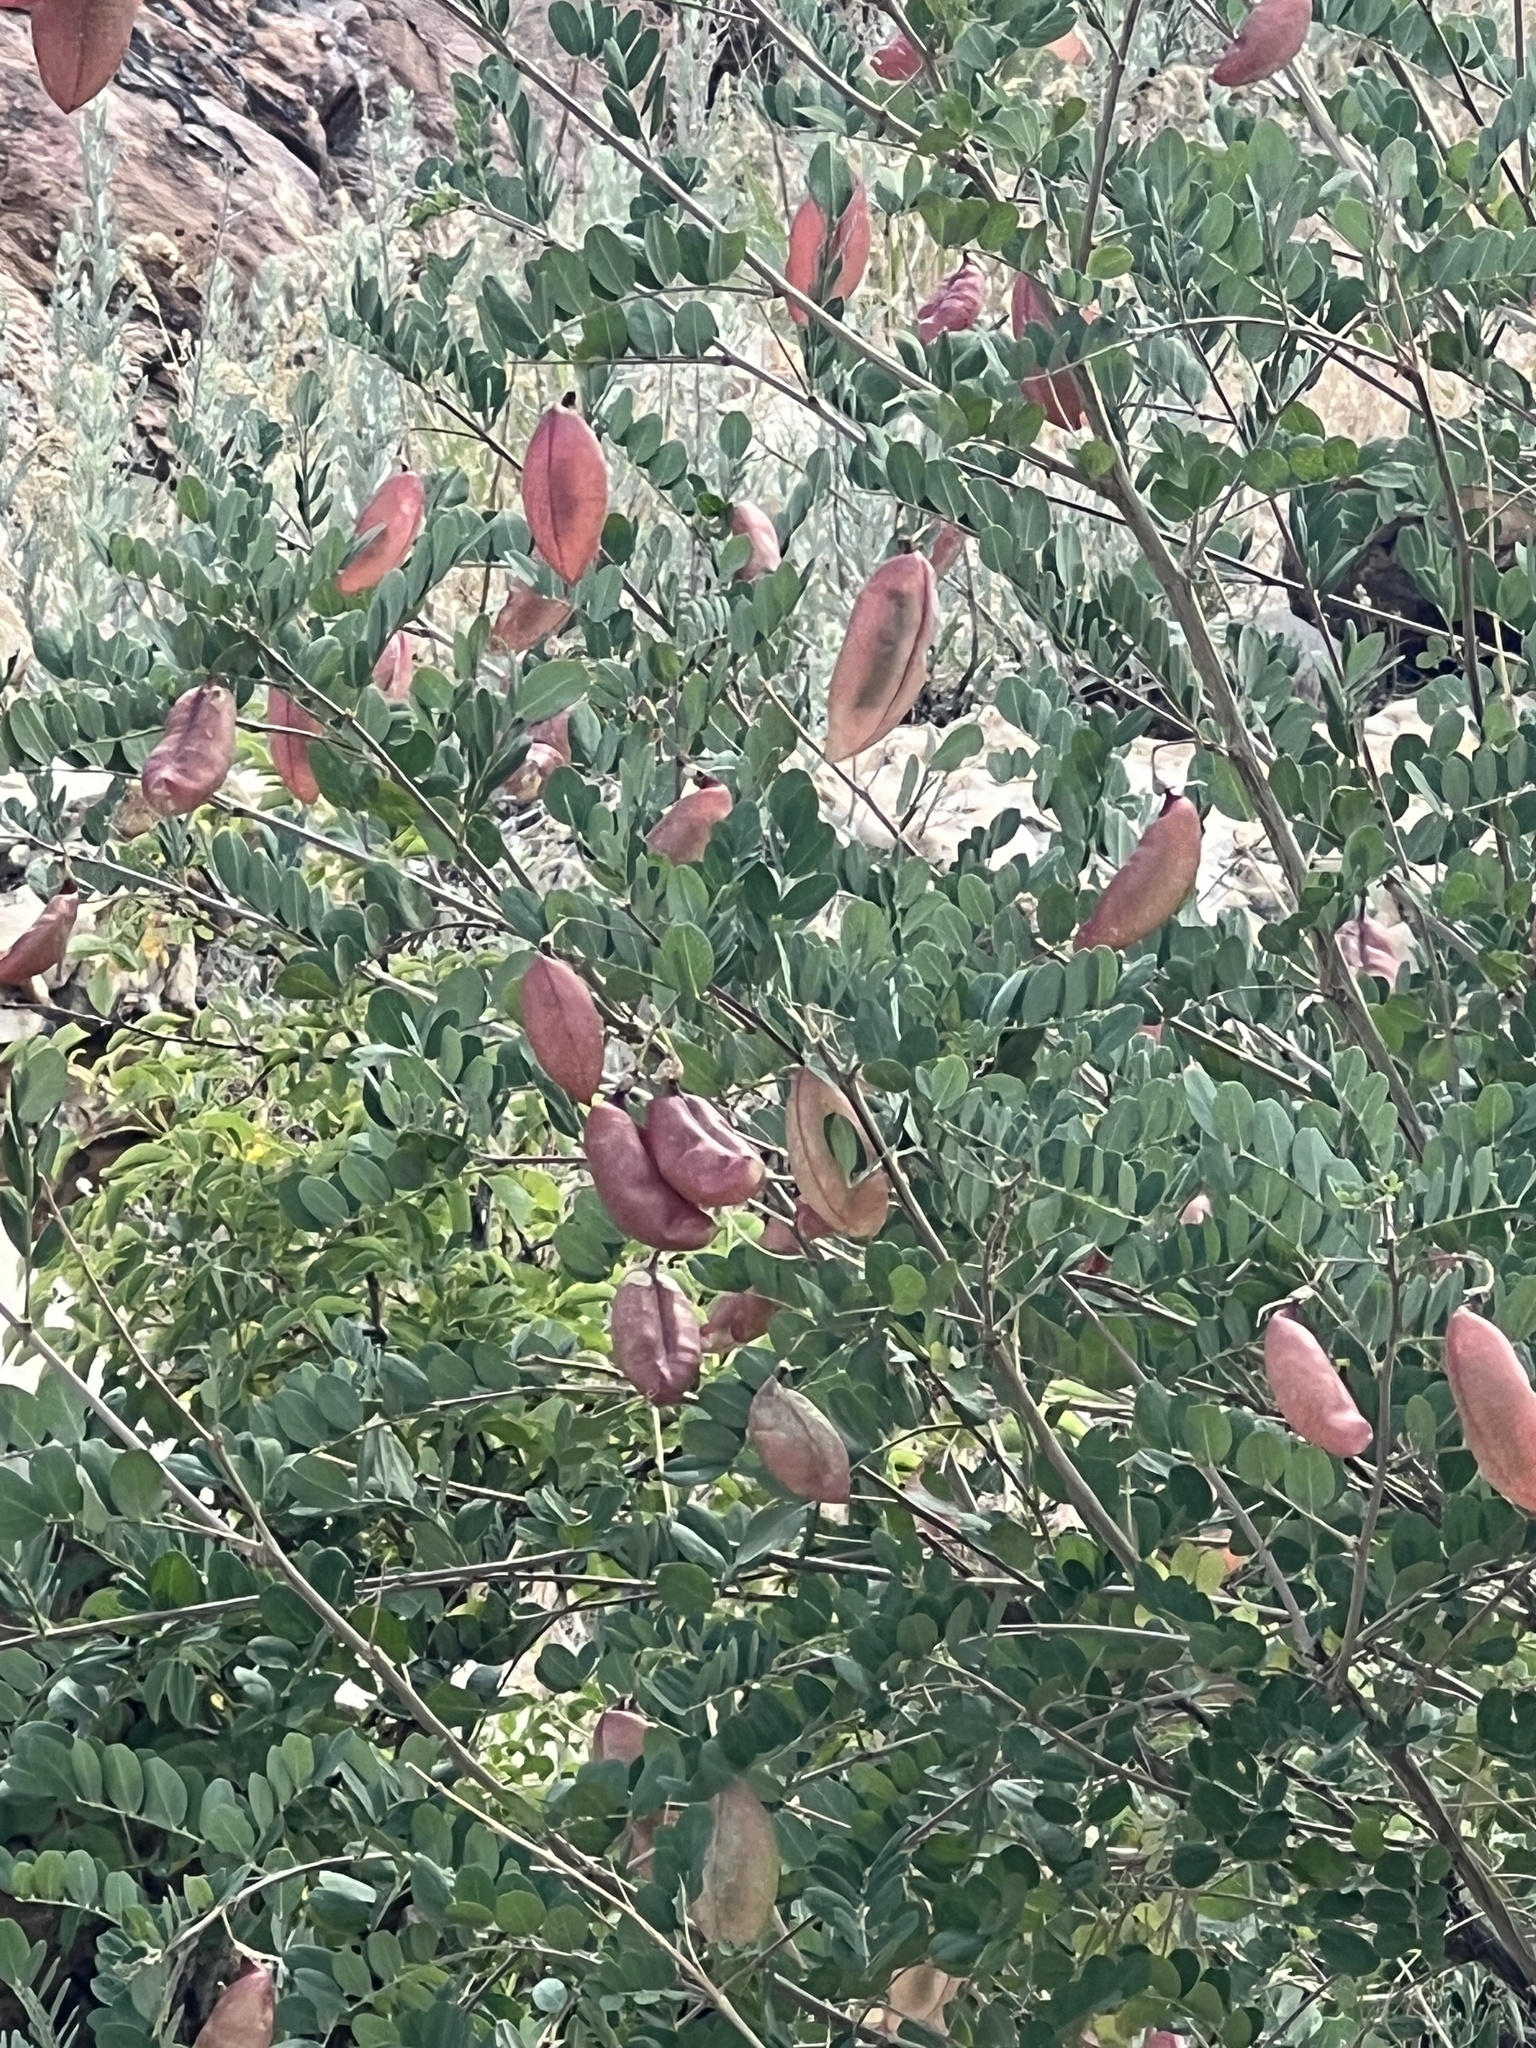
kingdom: Plantae
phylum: Tracheophyta
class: Magnoliopsida
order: Fabales
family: Fabaceae
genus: Colutea
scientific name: Colutea arborescens
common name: Bladder-senna
